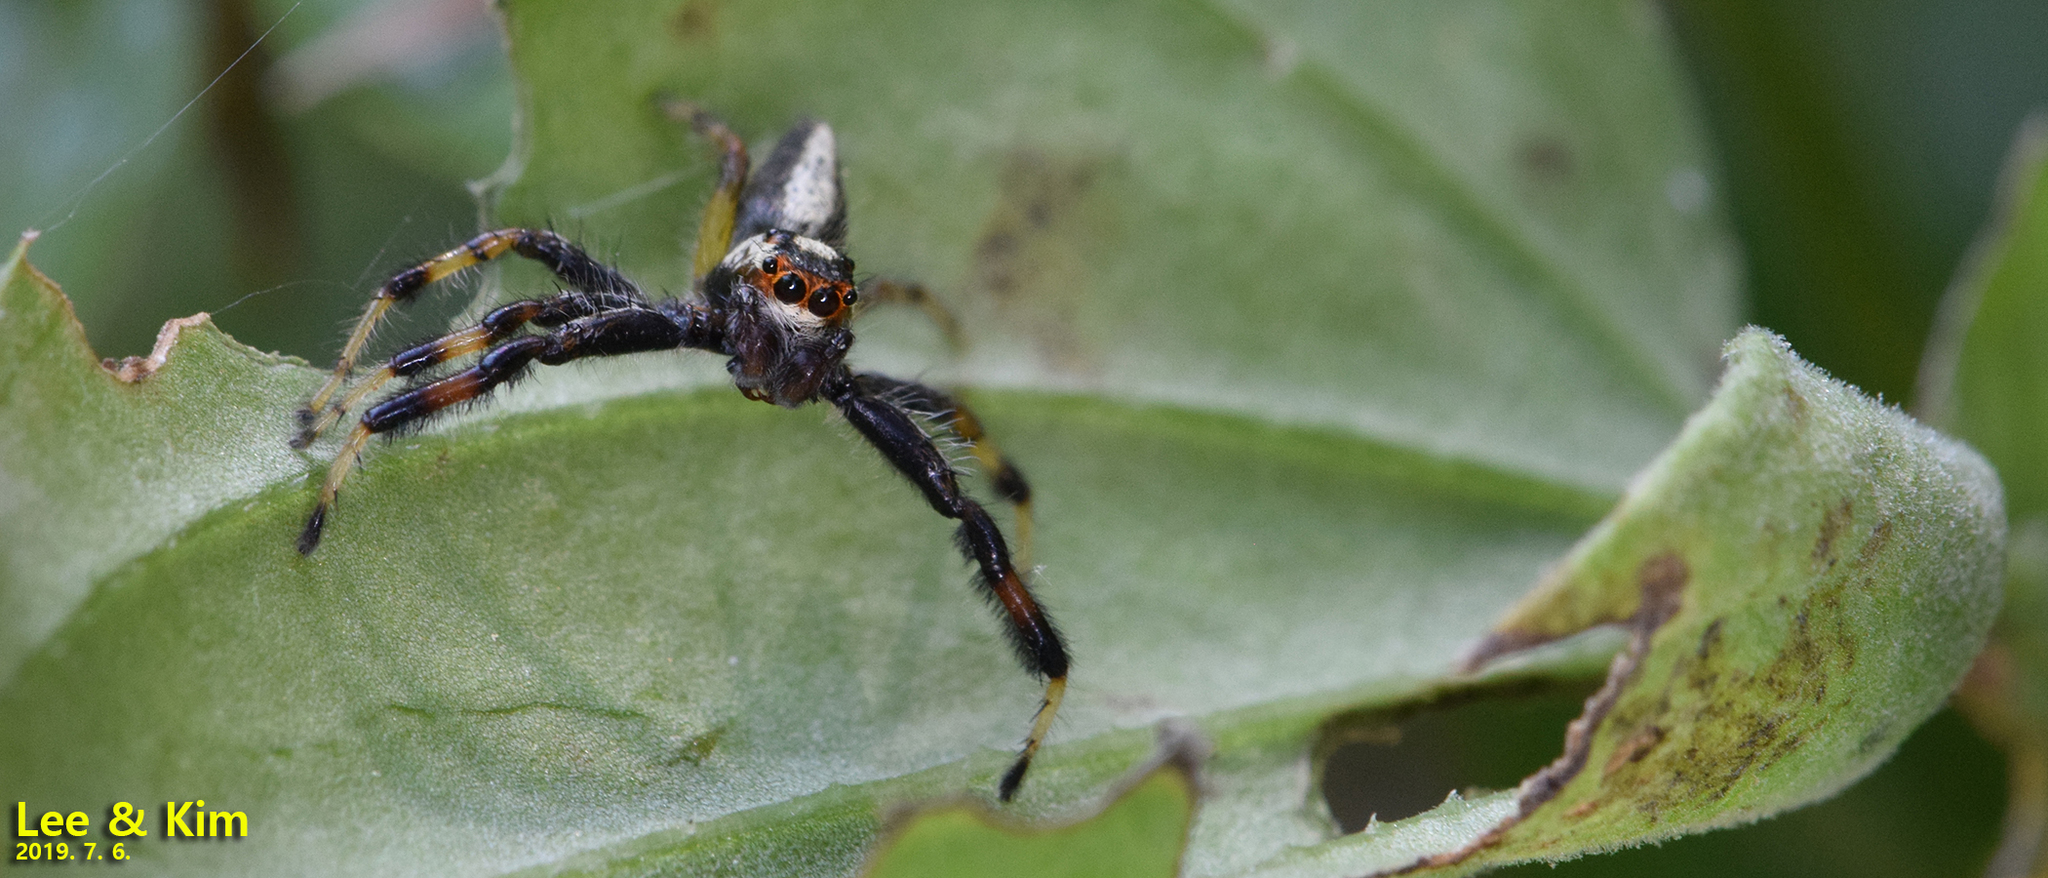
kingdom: Animalia
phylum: Arthropoda
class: Arachnida
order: Araneae
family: Salticidae
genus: Telamonia
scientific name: Telamonia vlijmi
